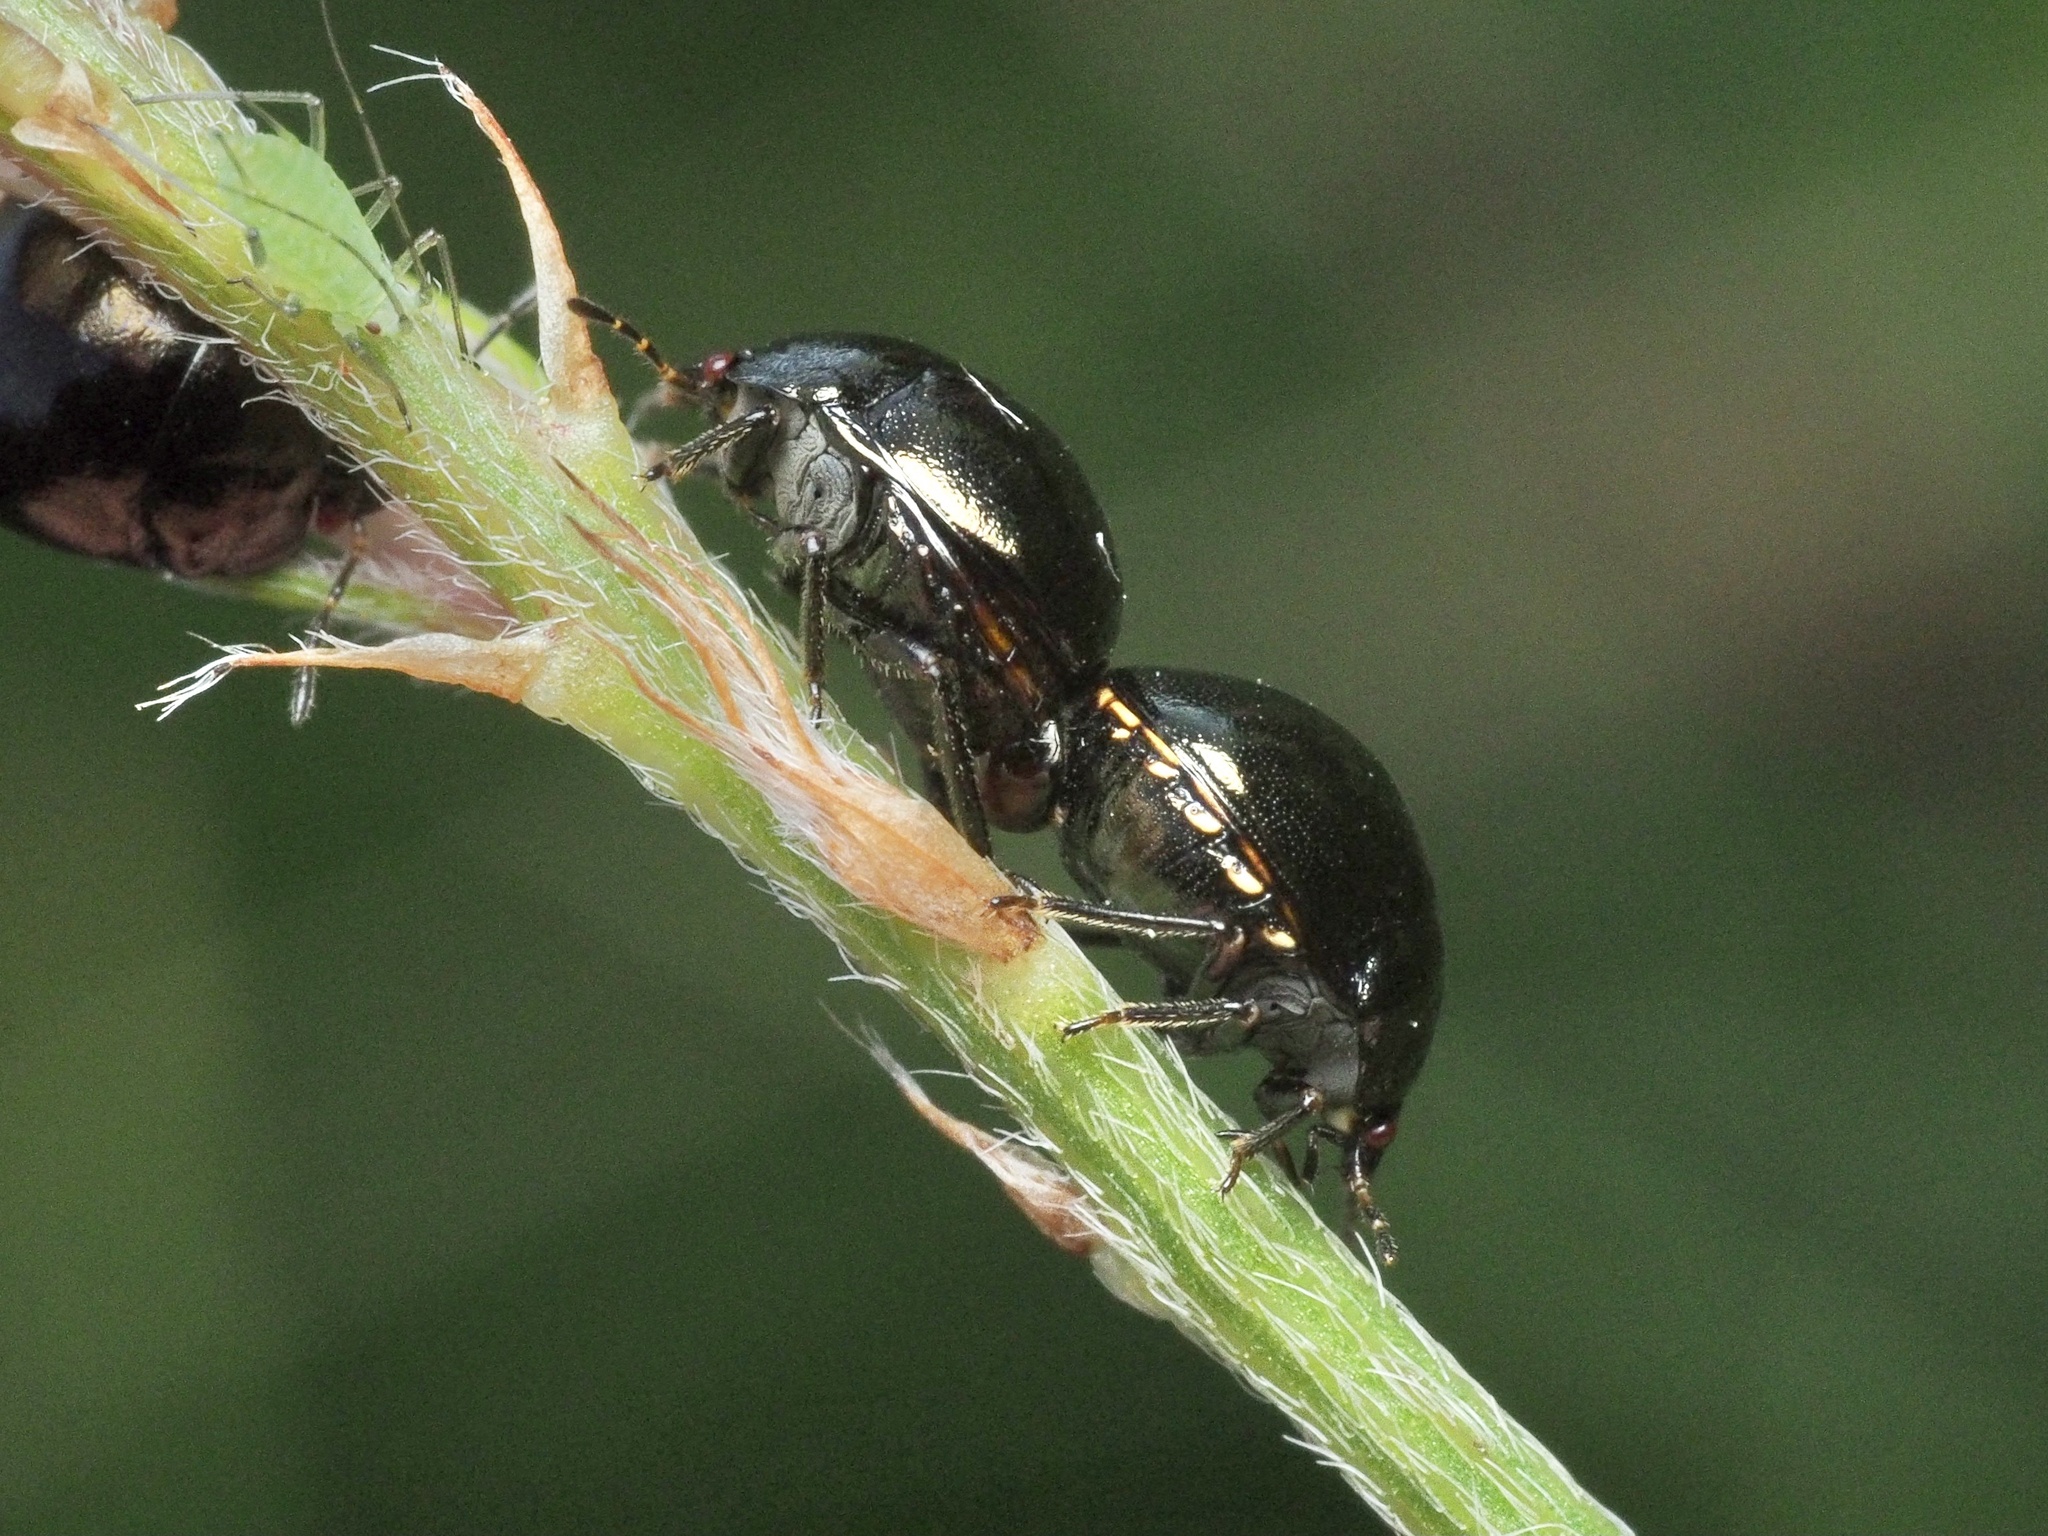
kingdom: Animalia
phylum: Arthropoda
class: Insecta
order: Hemiptera
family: Plataspidae
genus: Coptosoma
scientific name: Coptosoma scutellatum
